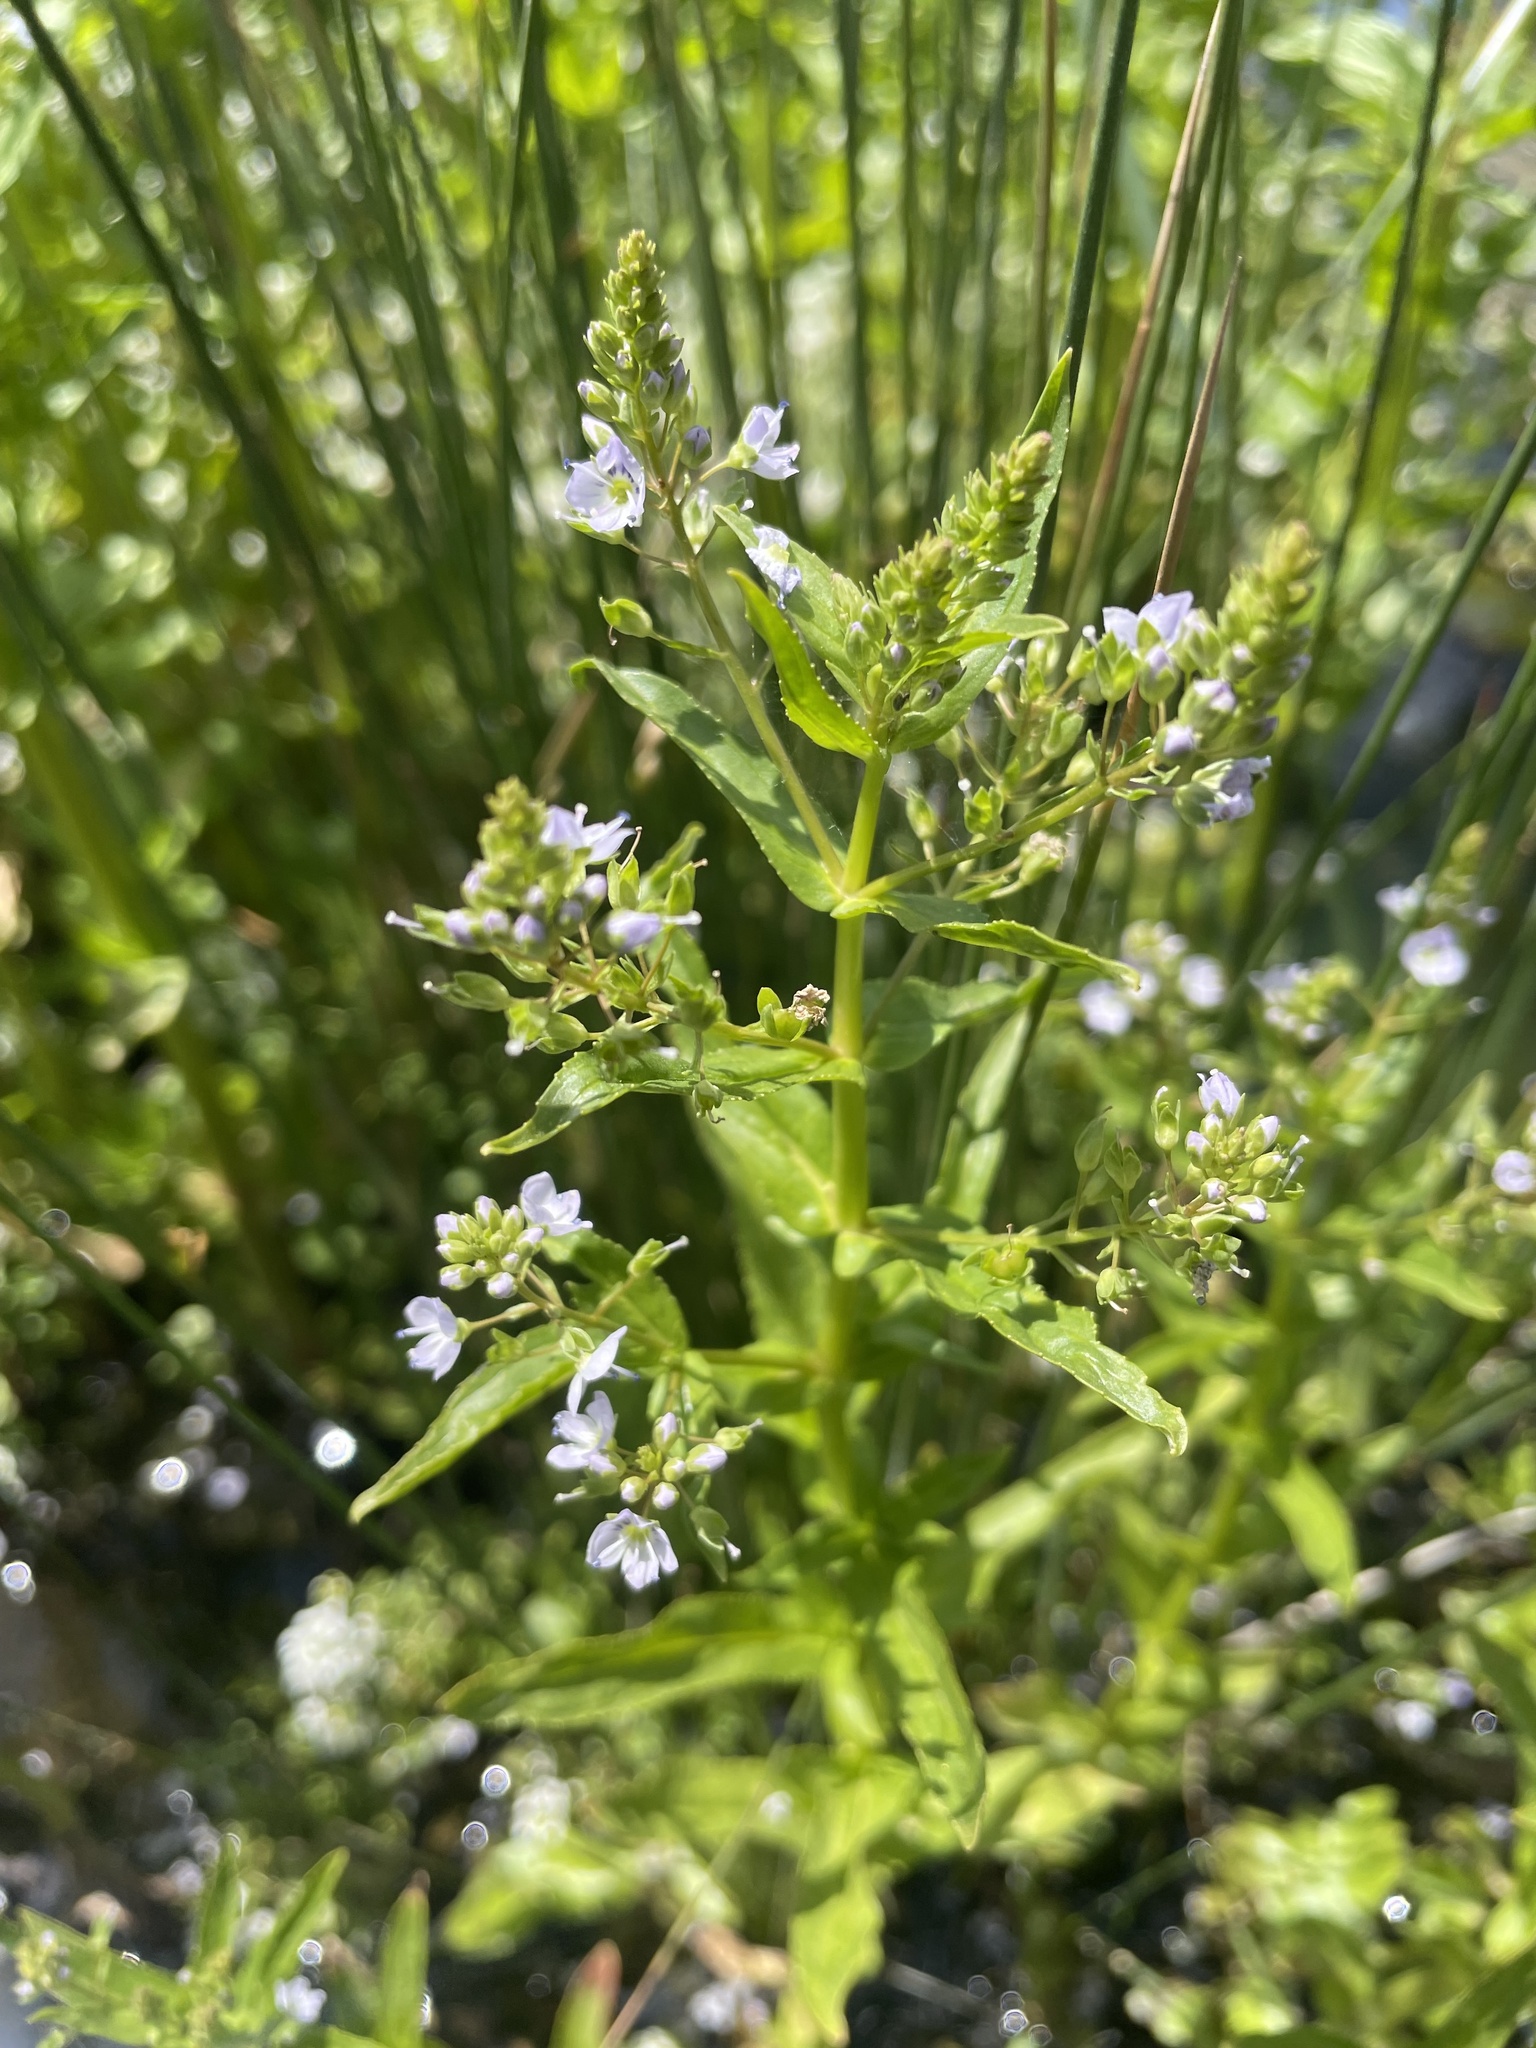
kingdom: Plantae
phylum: Tracheophyta
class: Magnoliopsida
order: Lamiales
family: Plantaginaceae
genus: Veronica
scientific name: Veronica anagallis-aquatica
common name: Water speedwell
